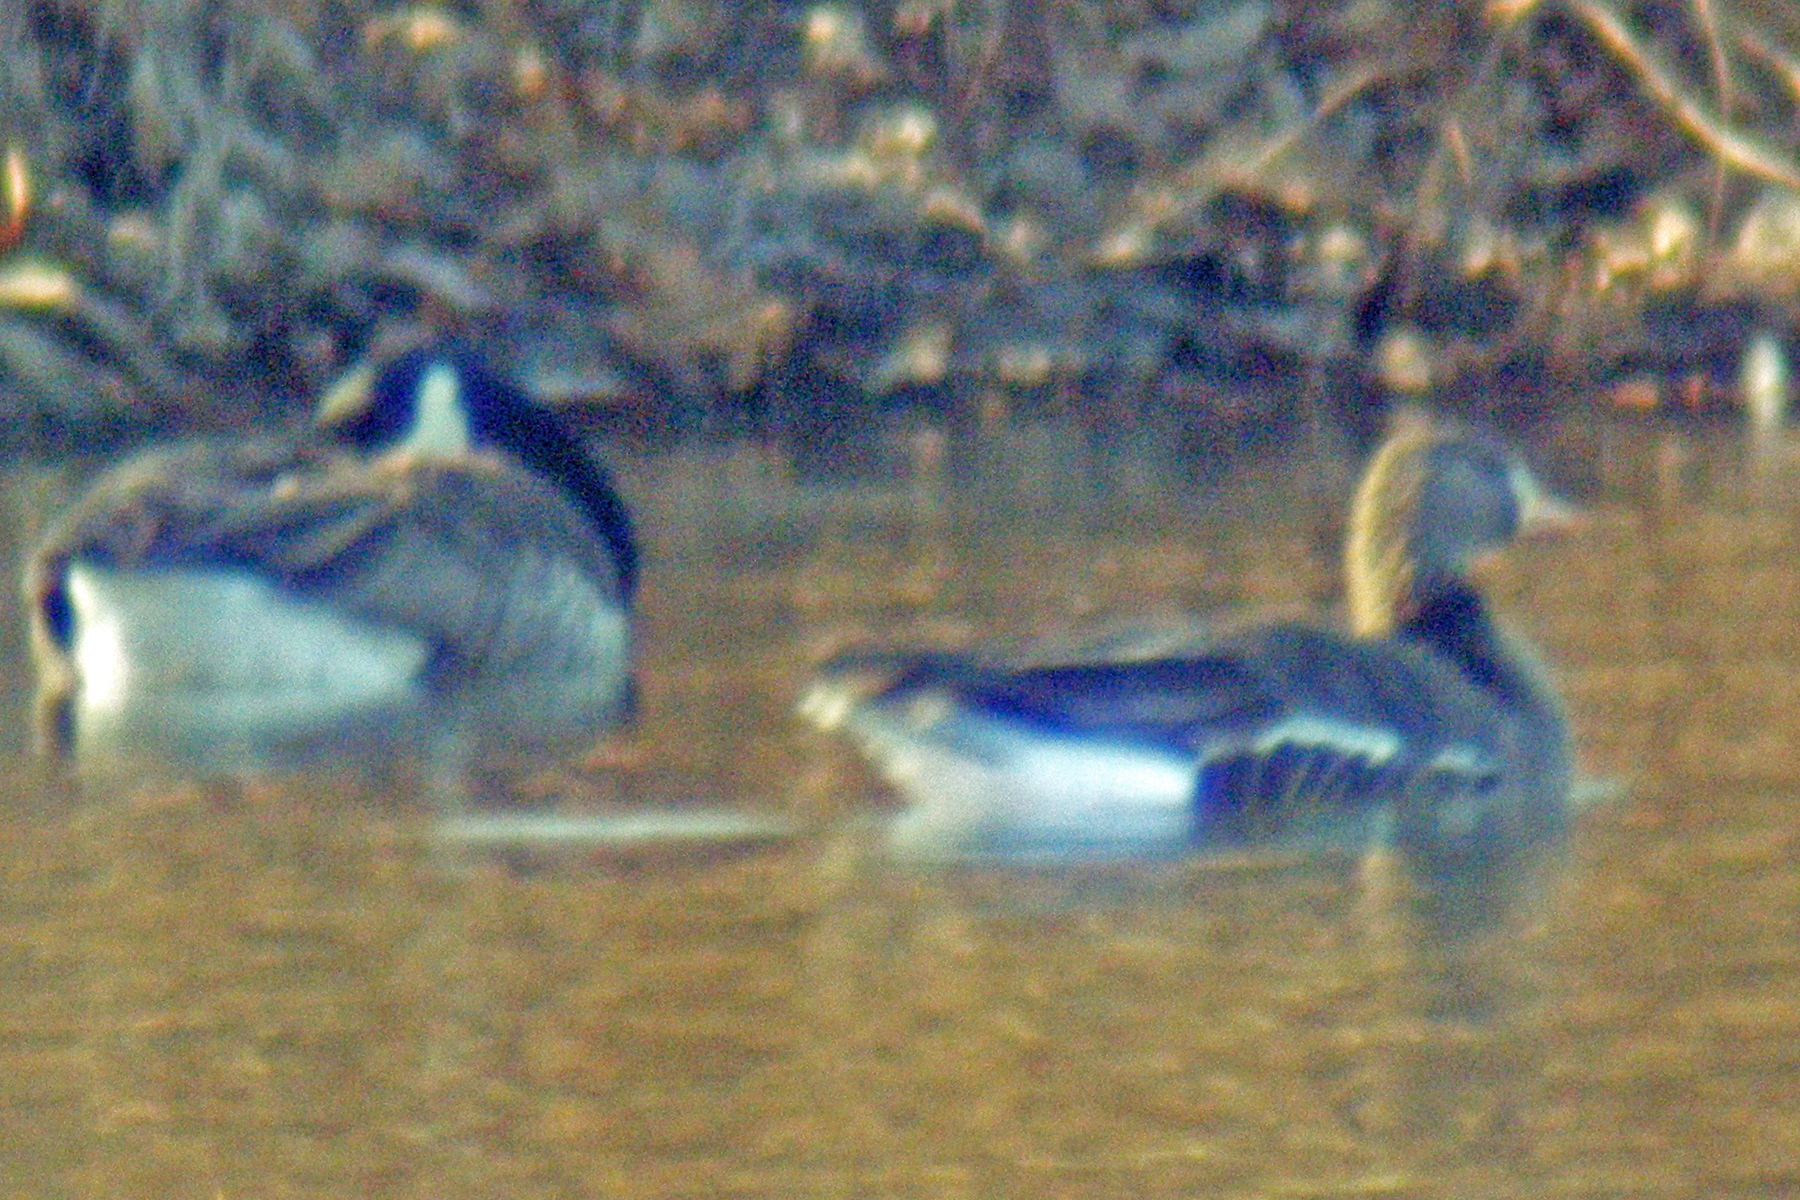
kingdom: Animalia
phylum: Chordata
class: Aves
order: Anseriformes
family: Anatidae
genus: Anser
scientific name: Anser albifrons
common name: Greater white-fronted goose
